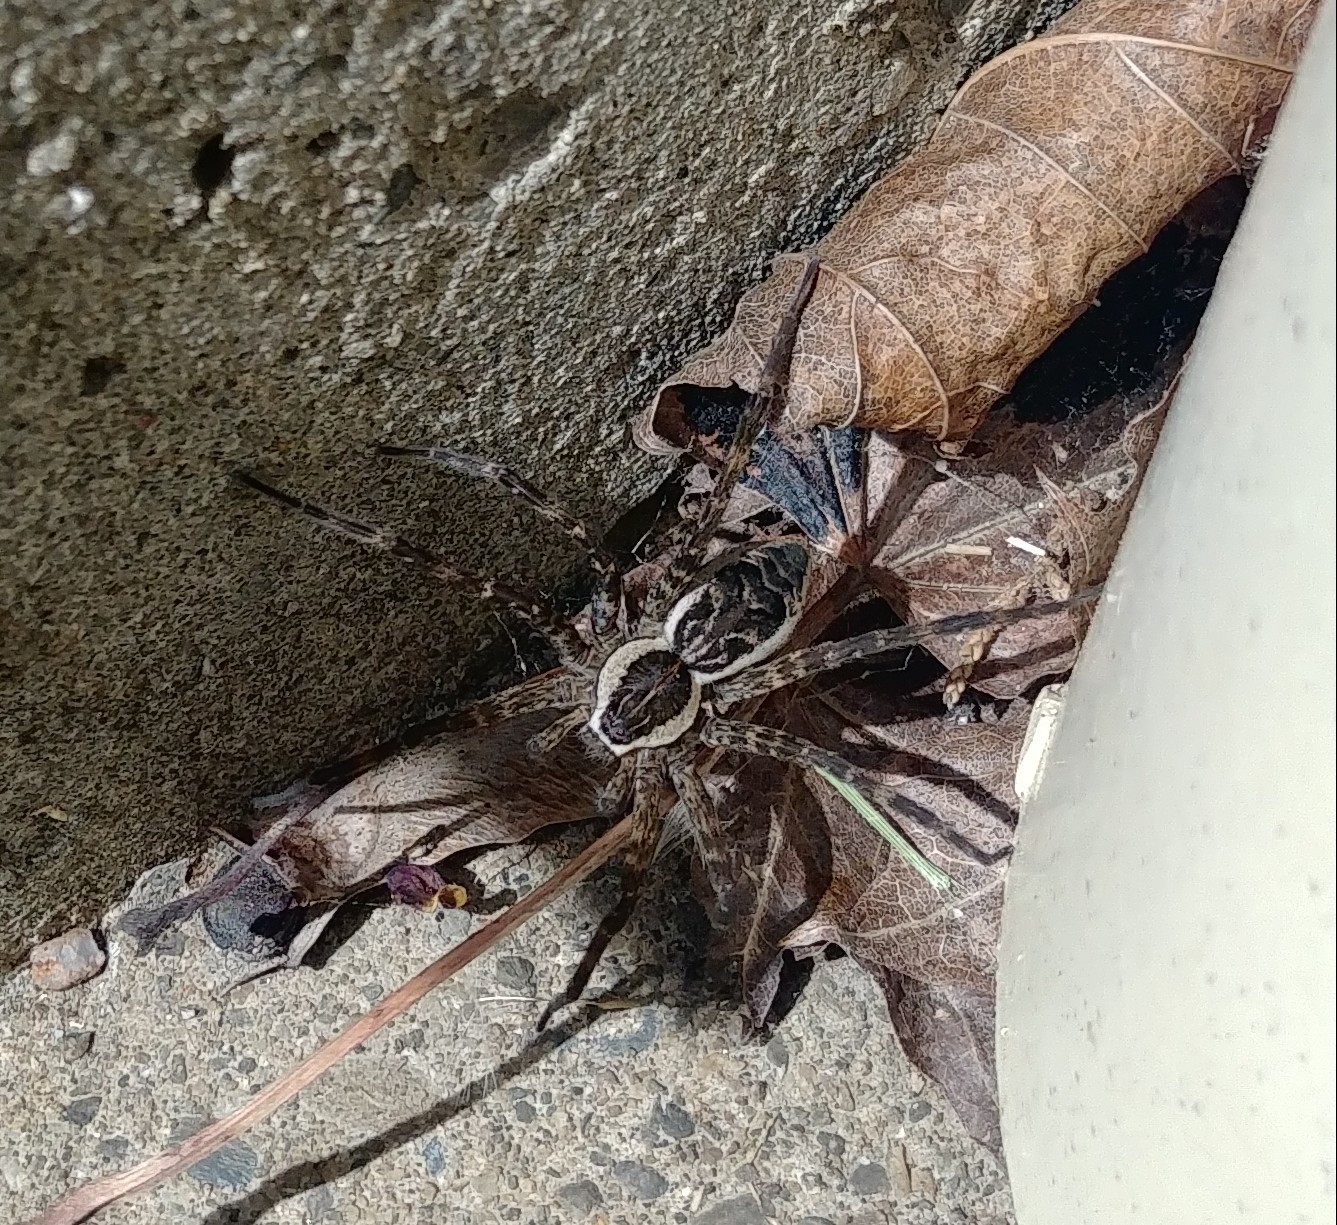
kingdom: Animalia
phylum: Arthropoda
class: Arachnida
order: Araneae
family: Pisauridae
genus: Dolomedes
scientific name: Dolomedes scriptus
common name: Striped fishing spider
